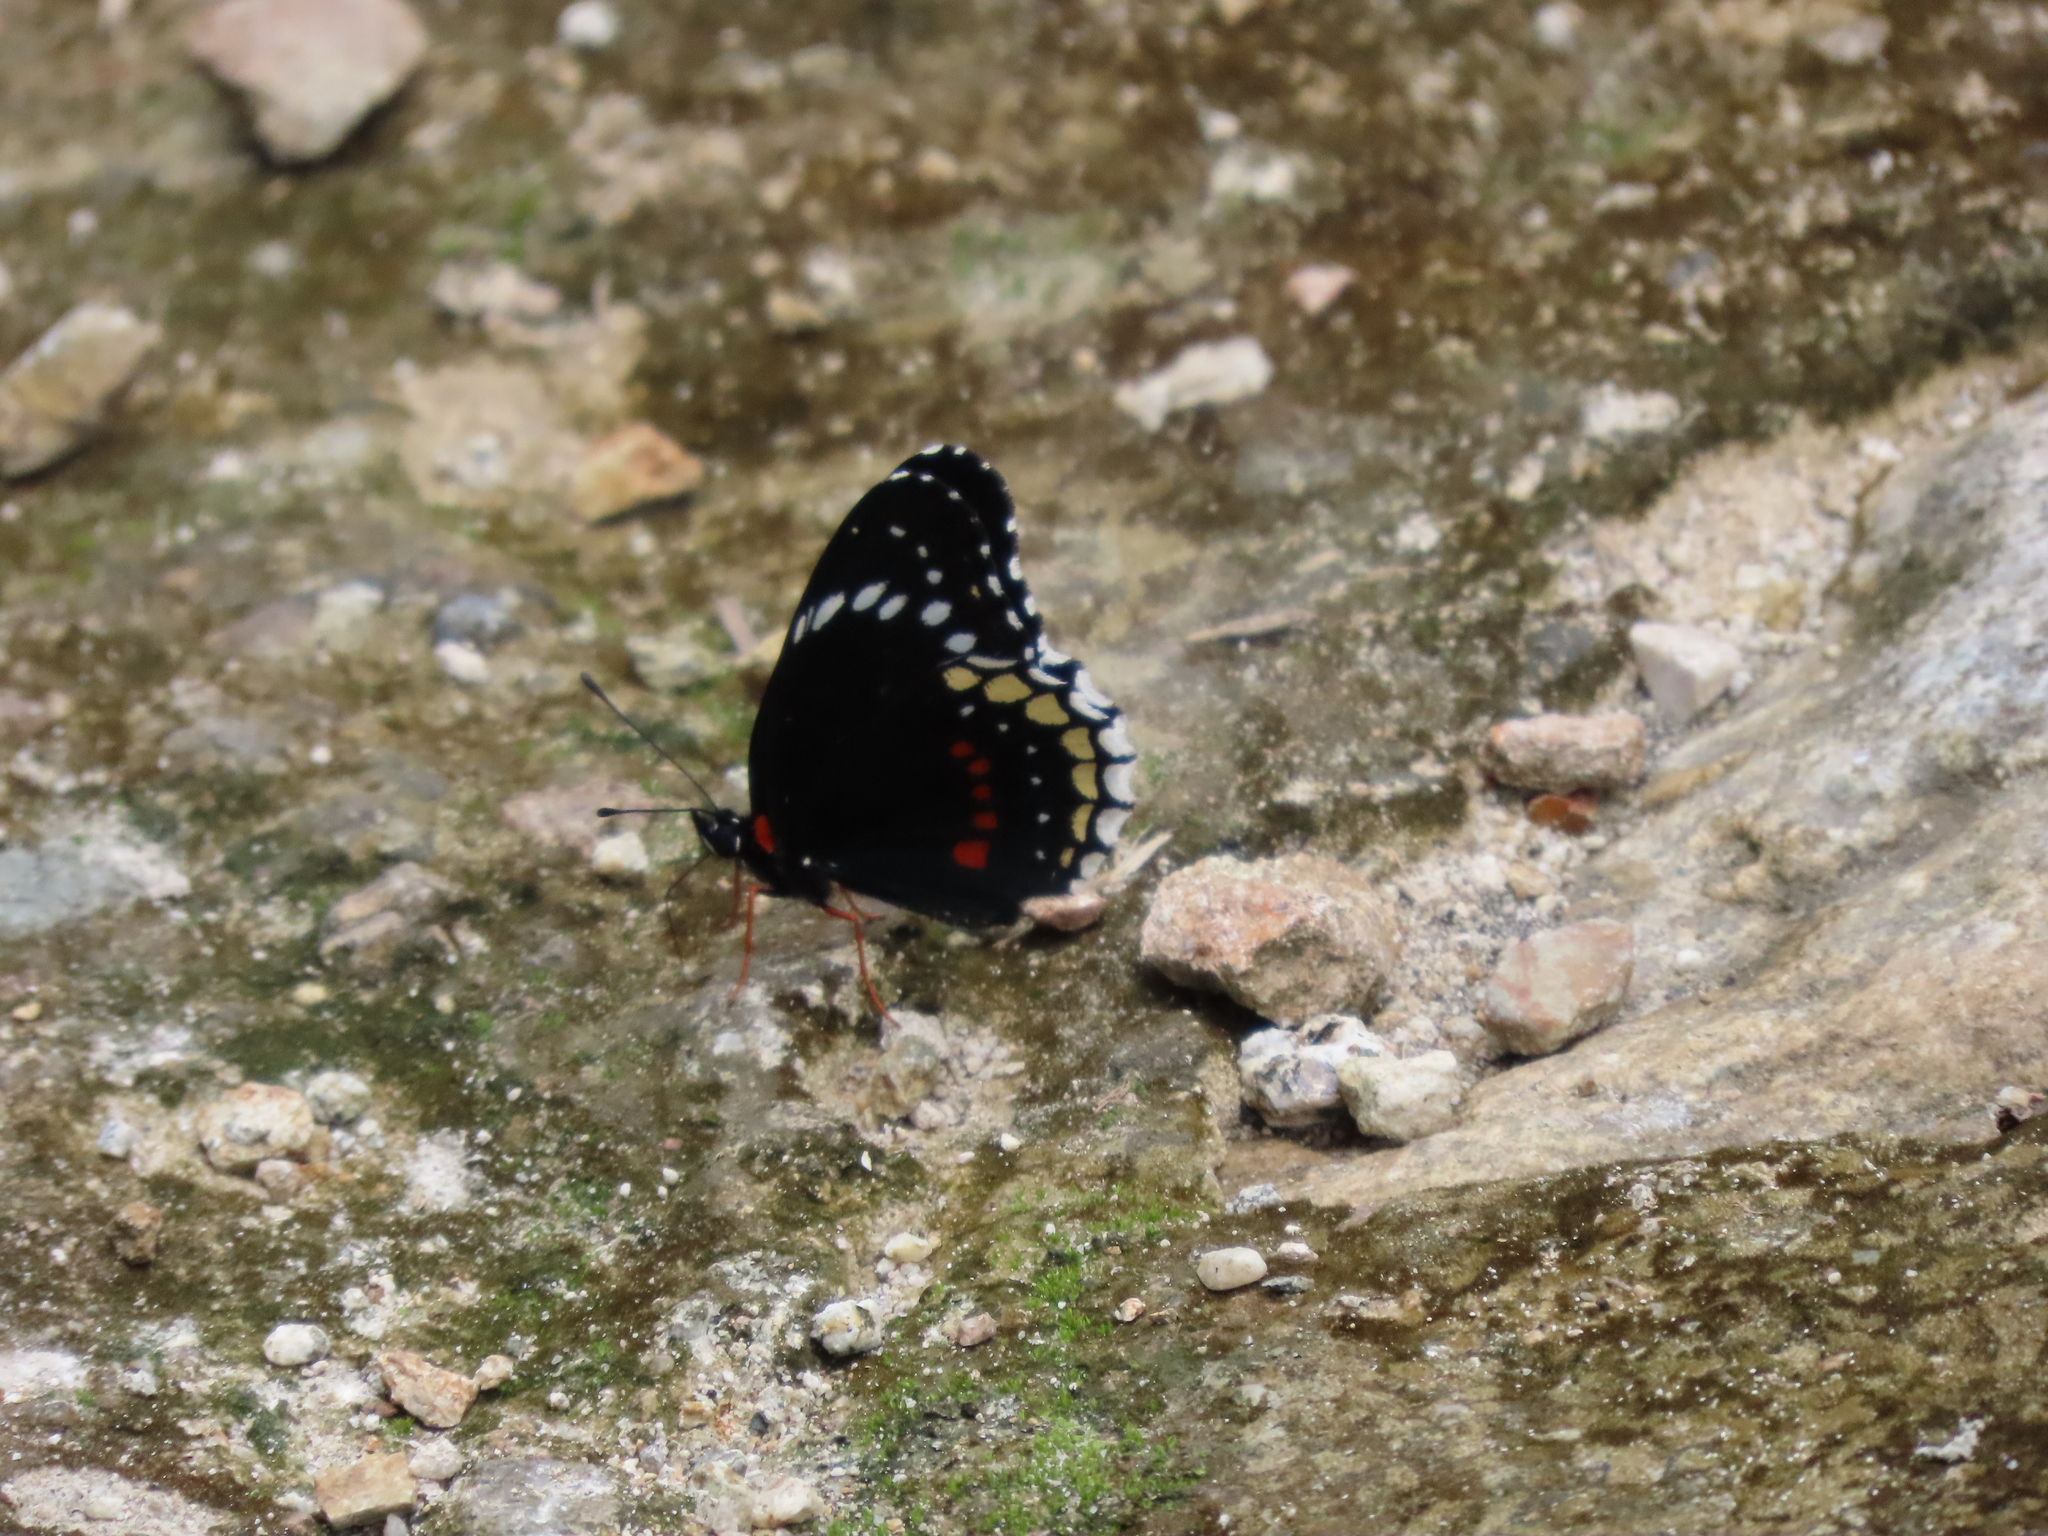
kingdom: Animalia
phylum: Arthropoda
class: Insecta
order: Lepidoptera
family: Nymphalidae
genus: Chlosyne
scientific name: Chlosyne hippodrome
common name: Simple patch
